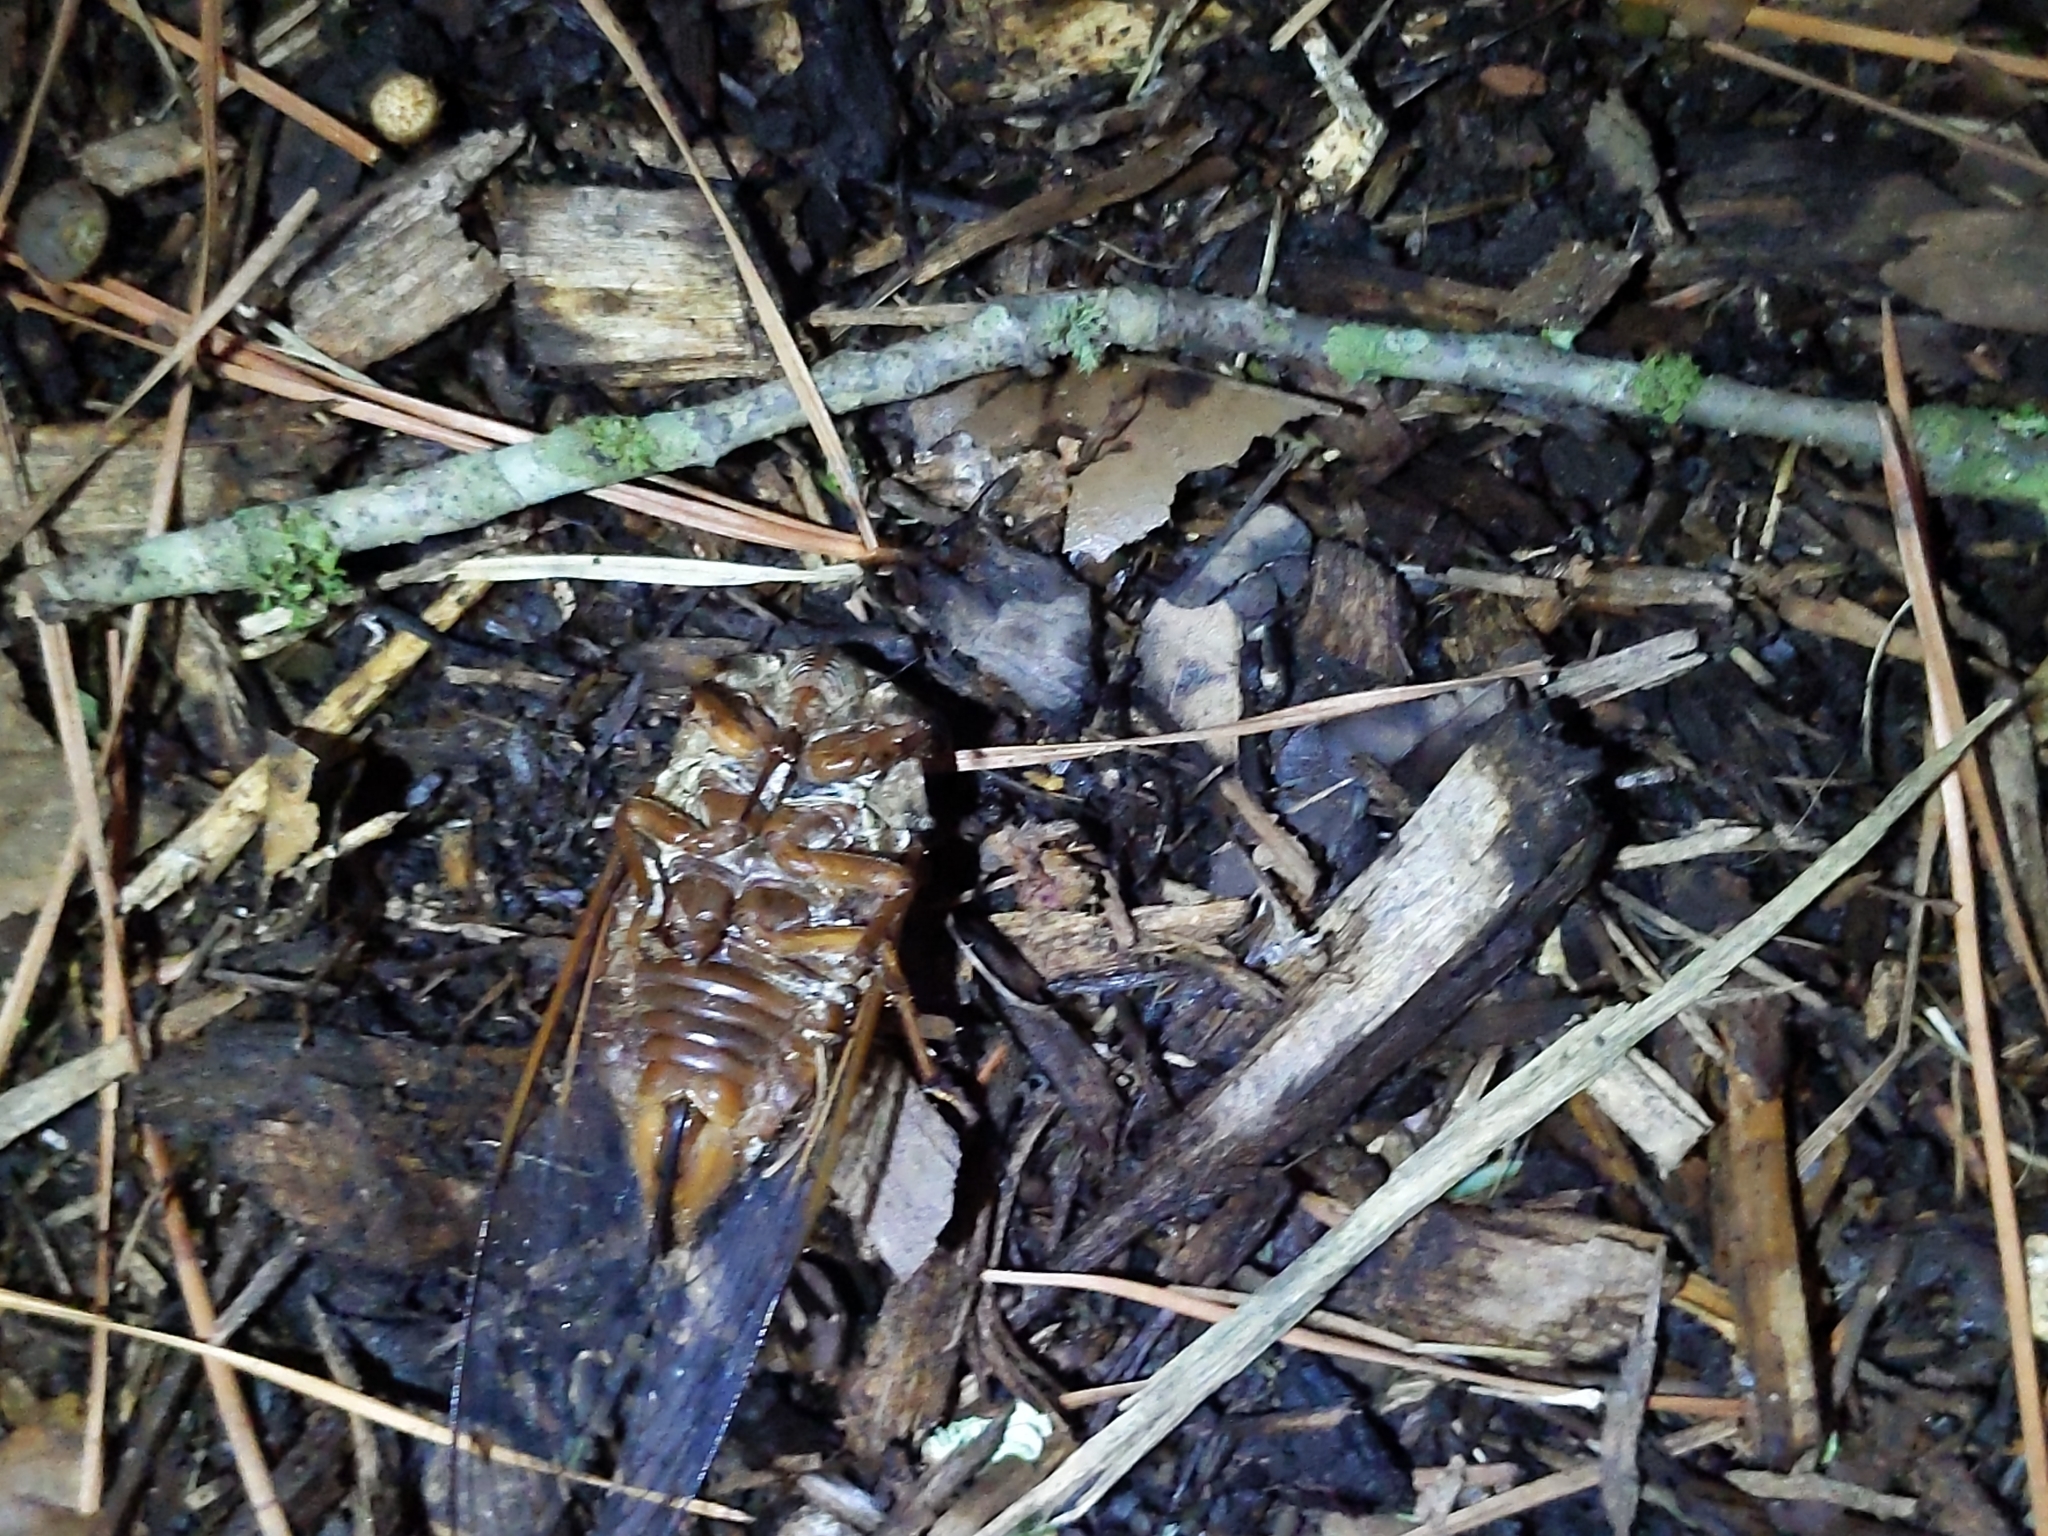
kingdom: Animalia
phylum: Arthropoda
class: Insecta
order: Hemiptera
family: Cicadidae
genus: Megatibicen
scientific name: Megatibicen resh
